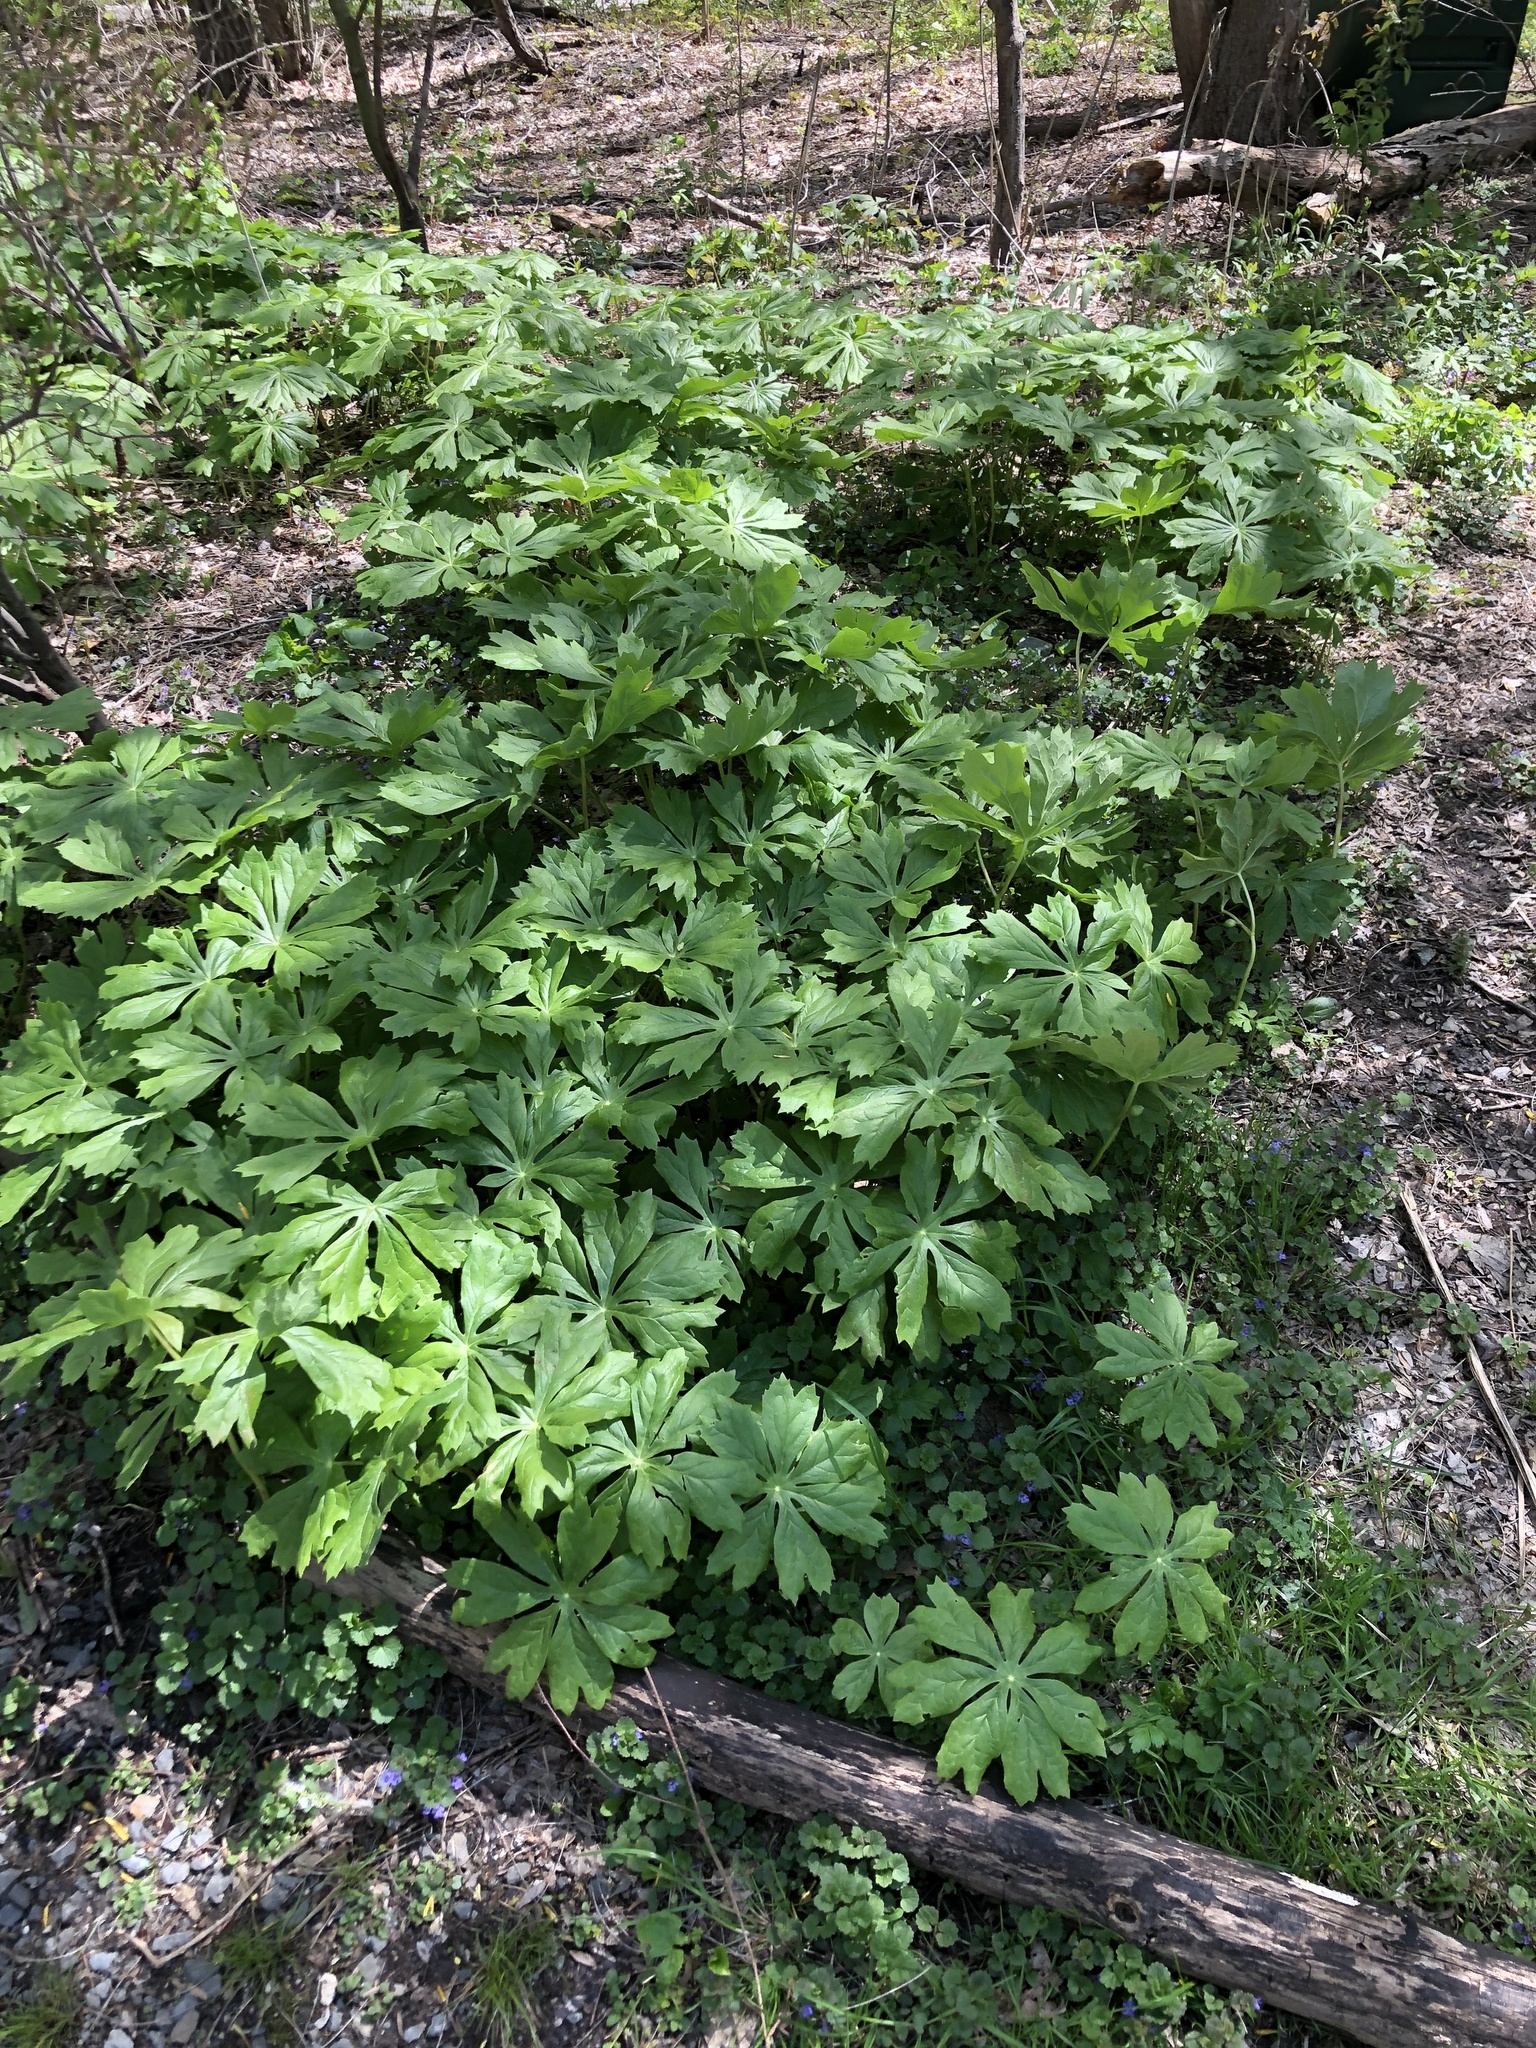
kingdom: Plantae
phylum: Tracheophyta
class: Magnoliopsida
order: Ranunculales
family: Berberidaceae
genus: Podophyllum
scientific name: Podophyllum peltatum
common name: Wild mandrake
